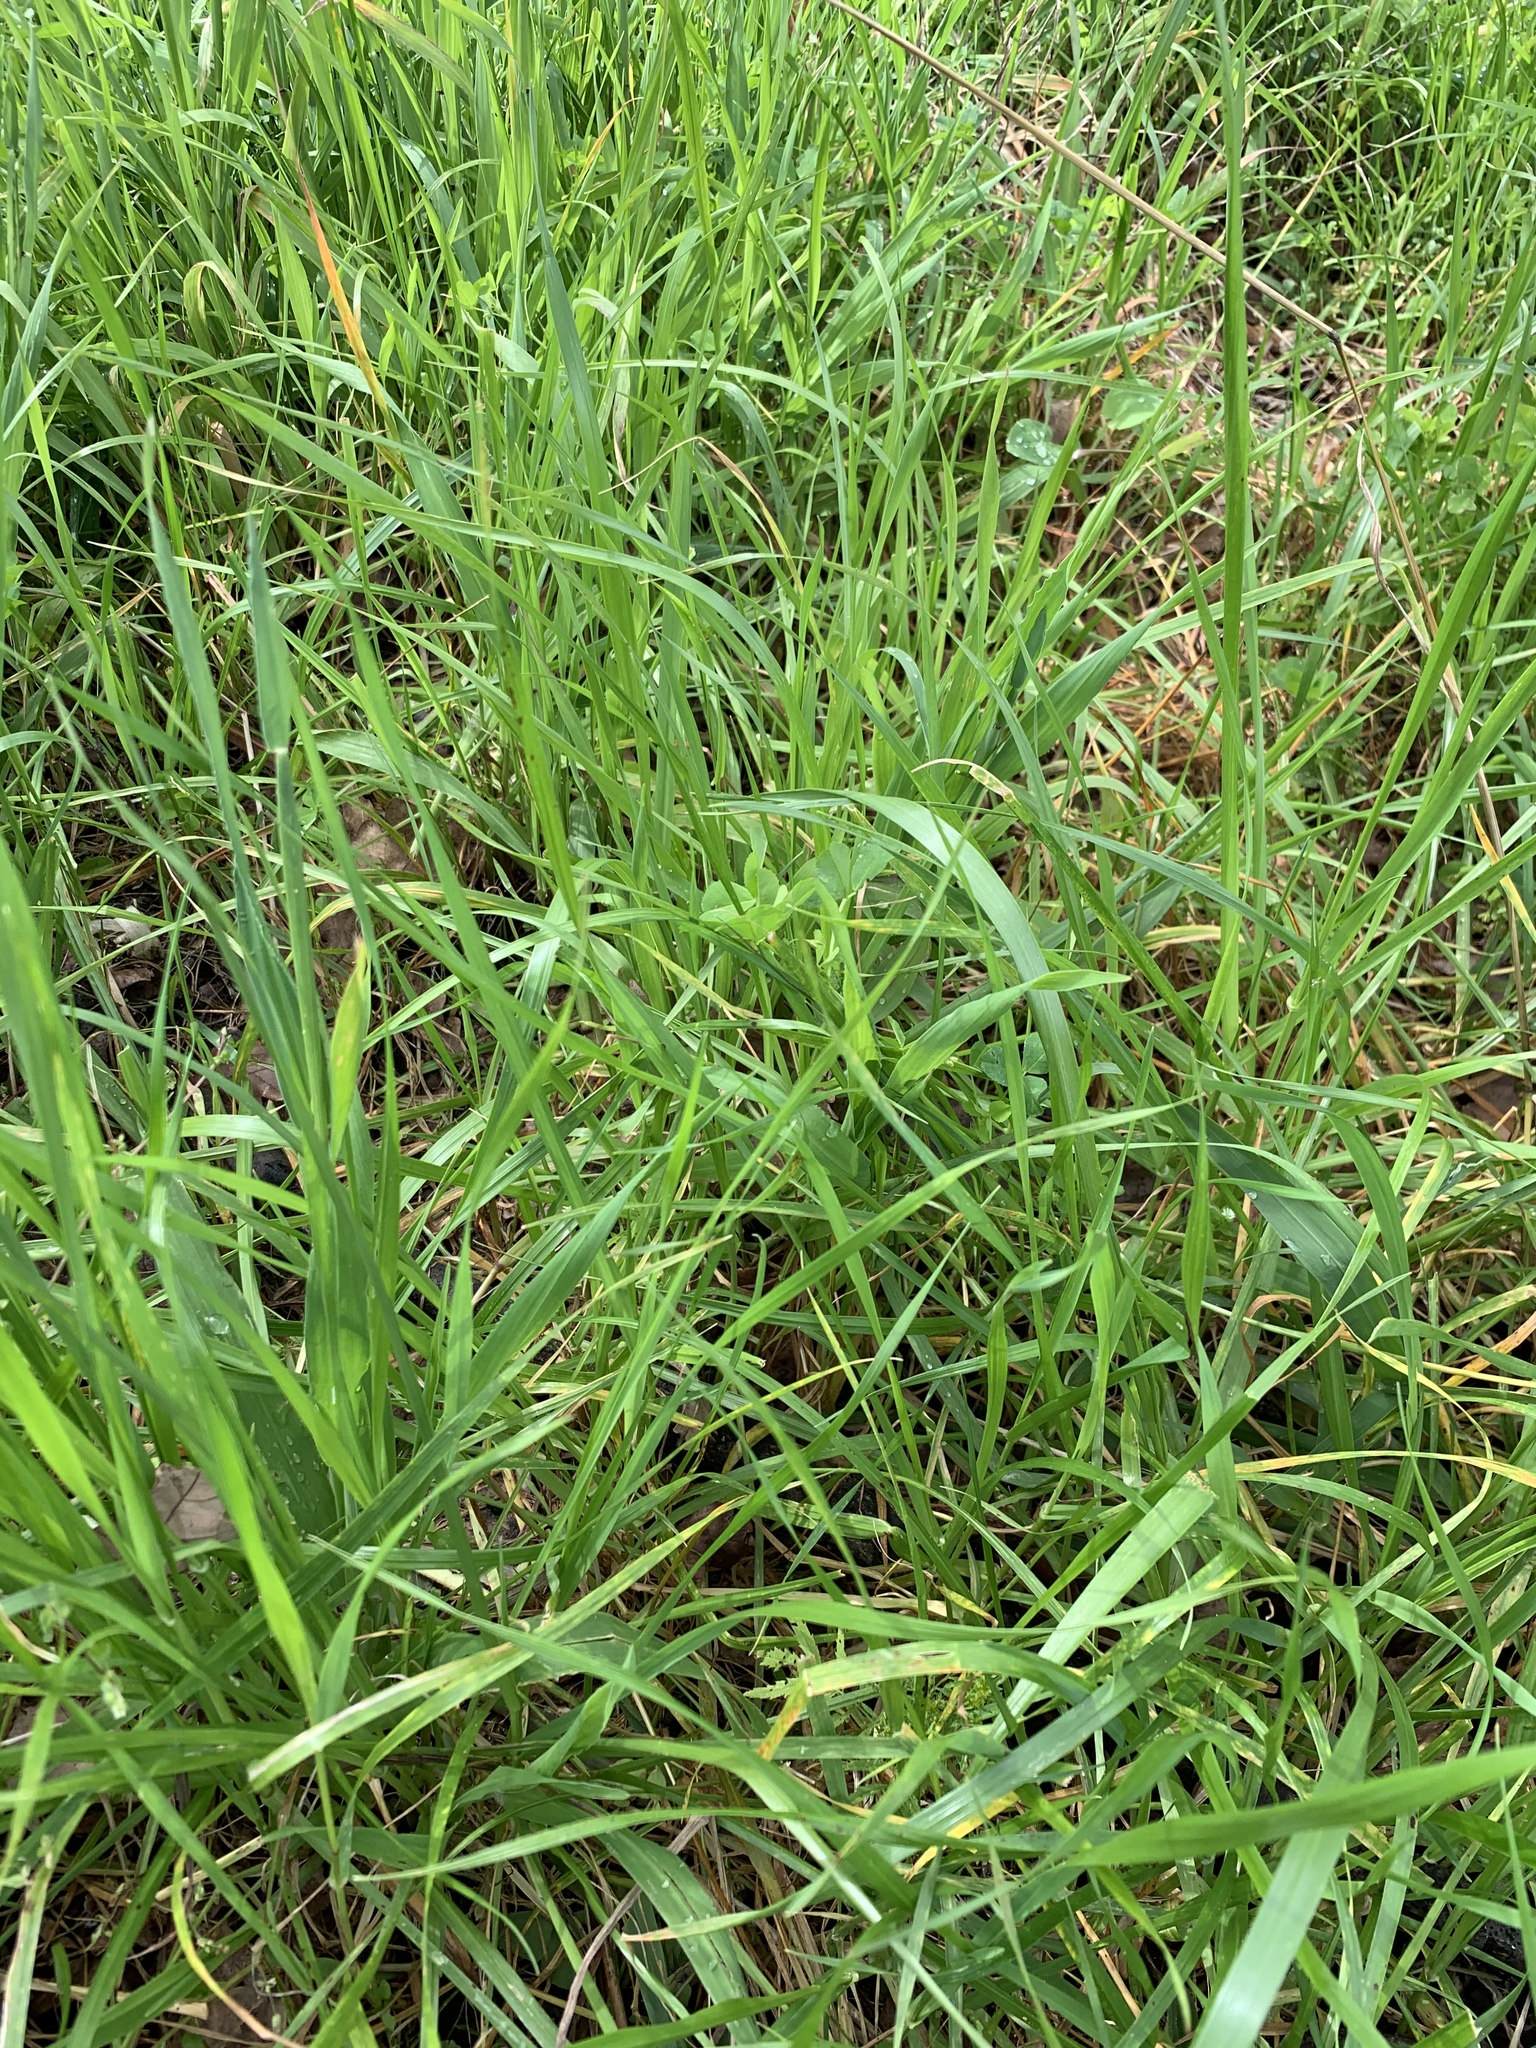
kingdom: Plantae
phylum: Tracheophyta
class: Liliopsida
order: Poales
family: Poaceae
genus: Cenchrus
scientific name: Cenchrus clandestinus
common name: Kikuyugrass
